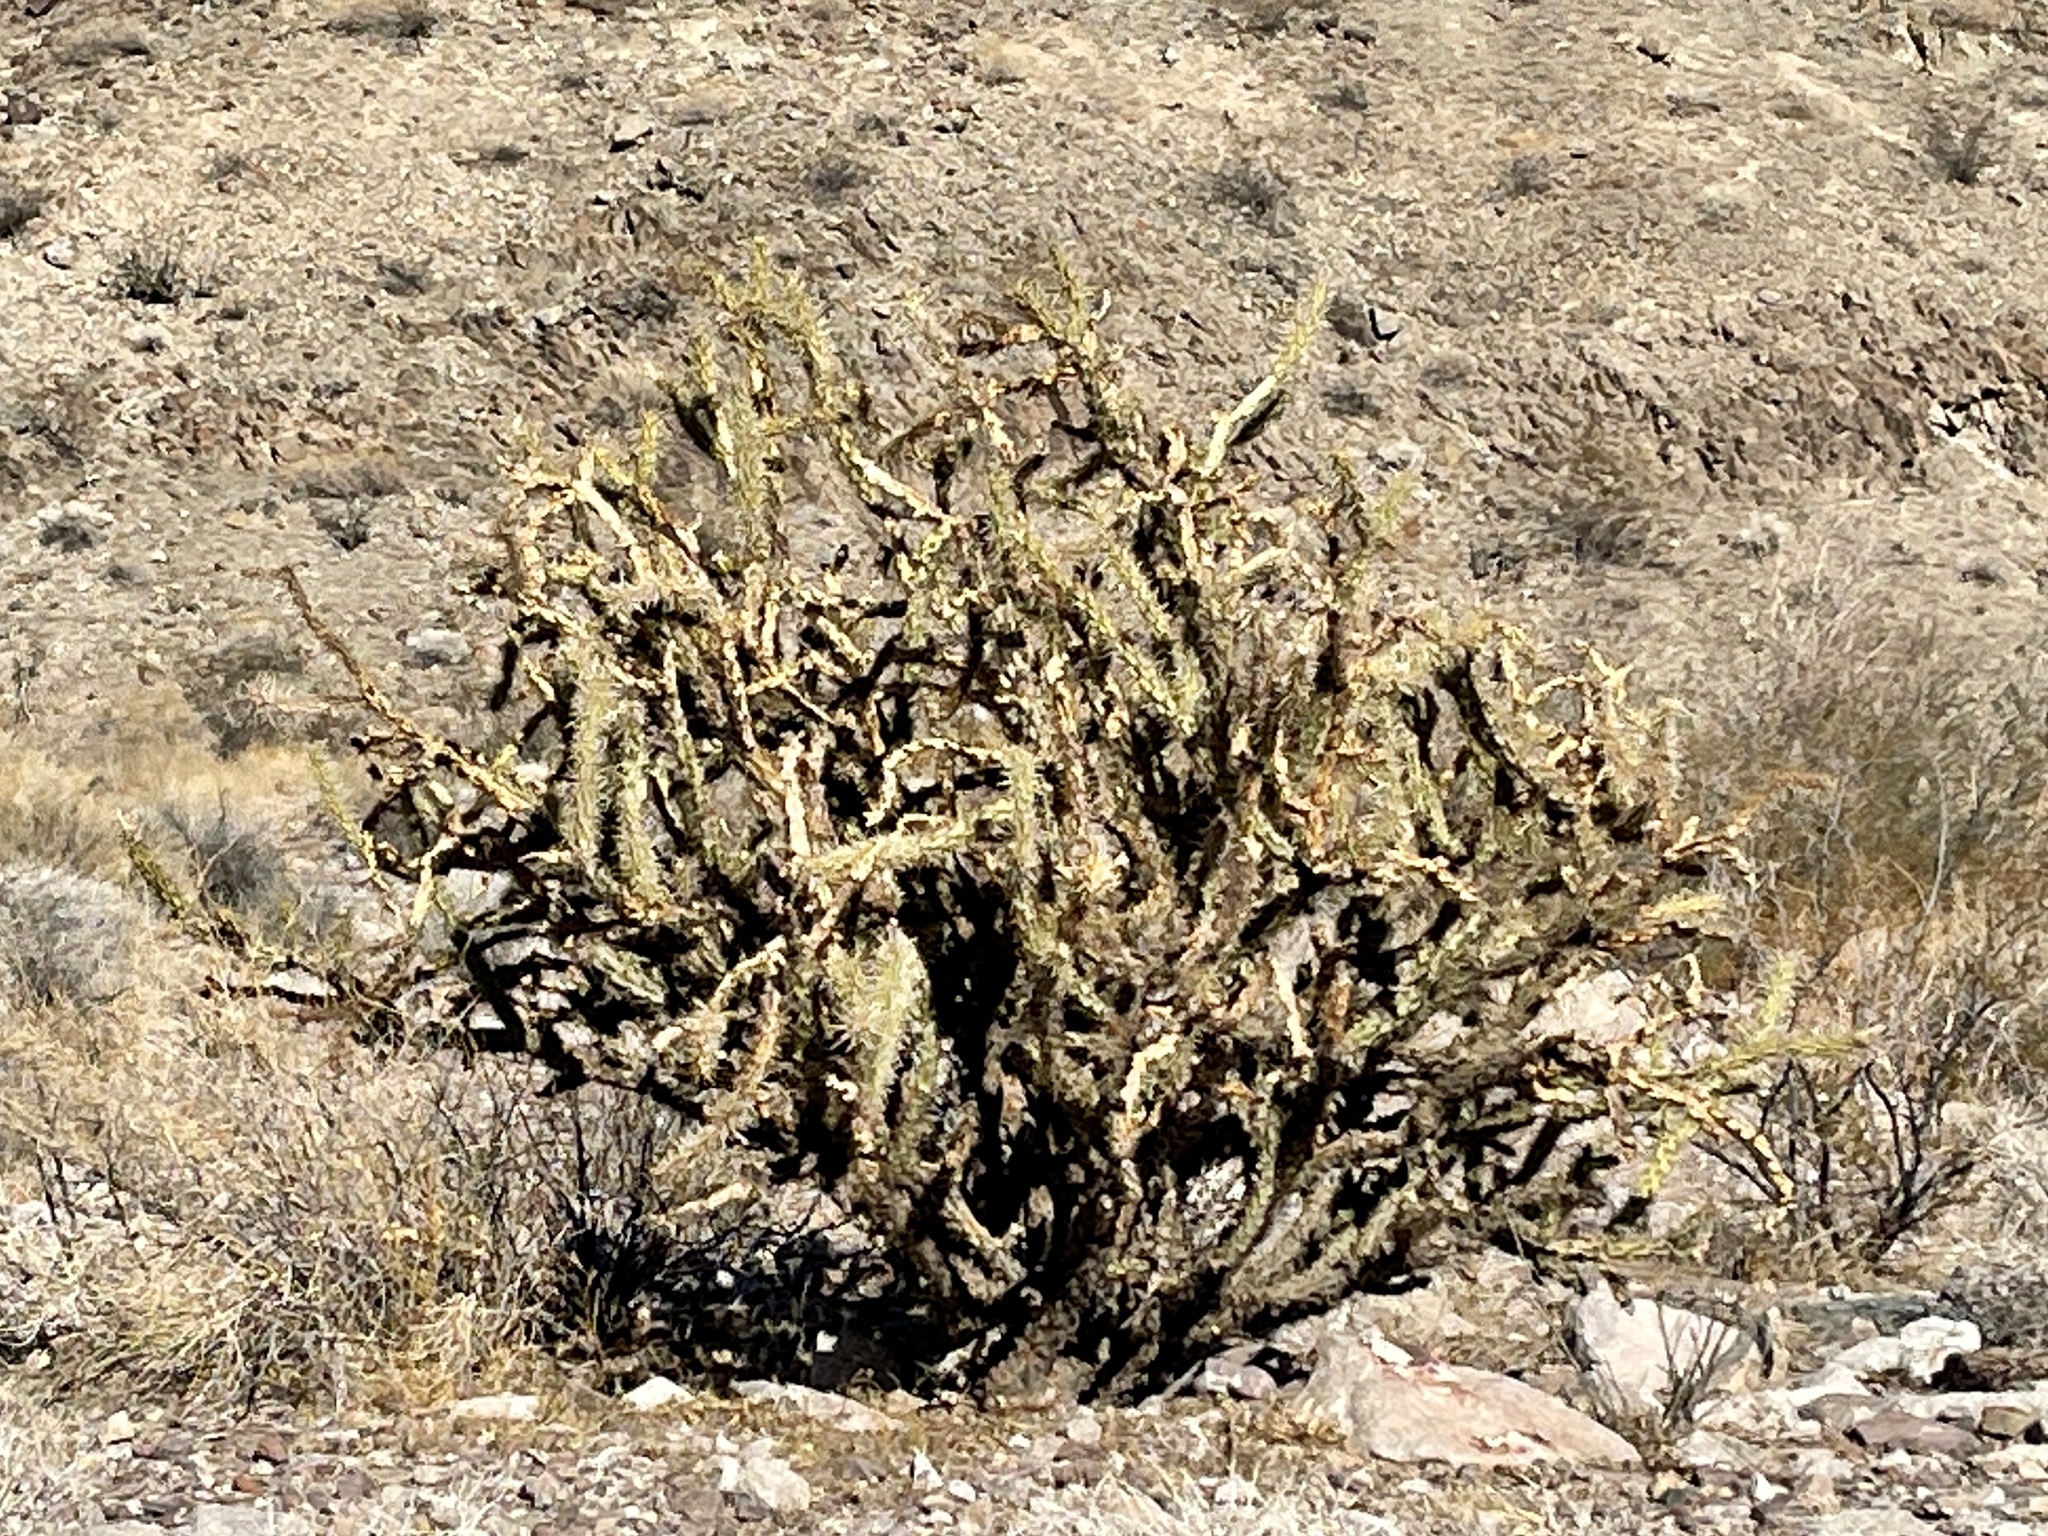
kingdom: Plantae
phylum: Tracheophyta
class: Magnoliopsida
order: Caryophyllales
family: Cactaceae
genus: Cylindropuntia
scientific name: Cylindropuntia acanthocarpa
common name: Buckhorn cholla
